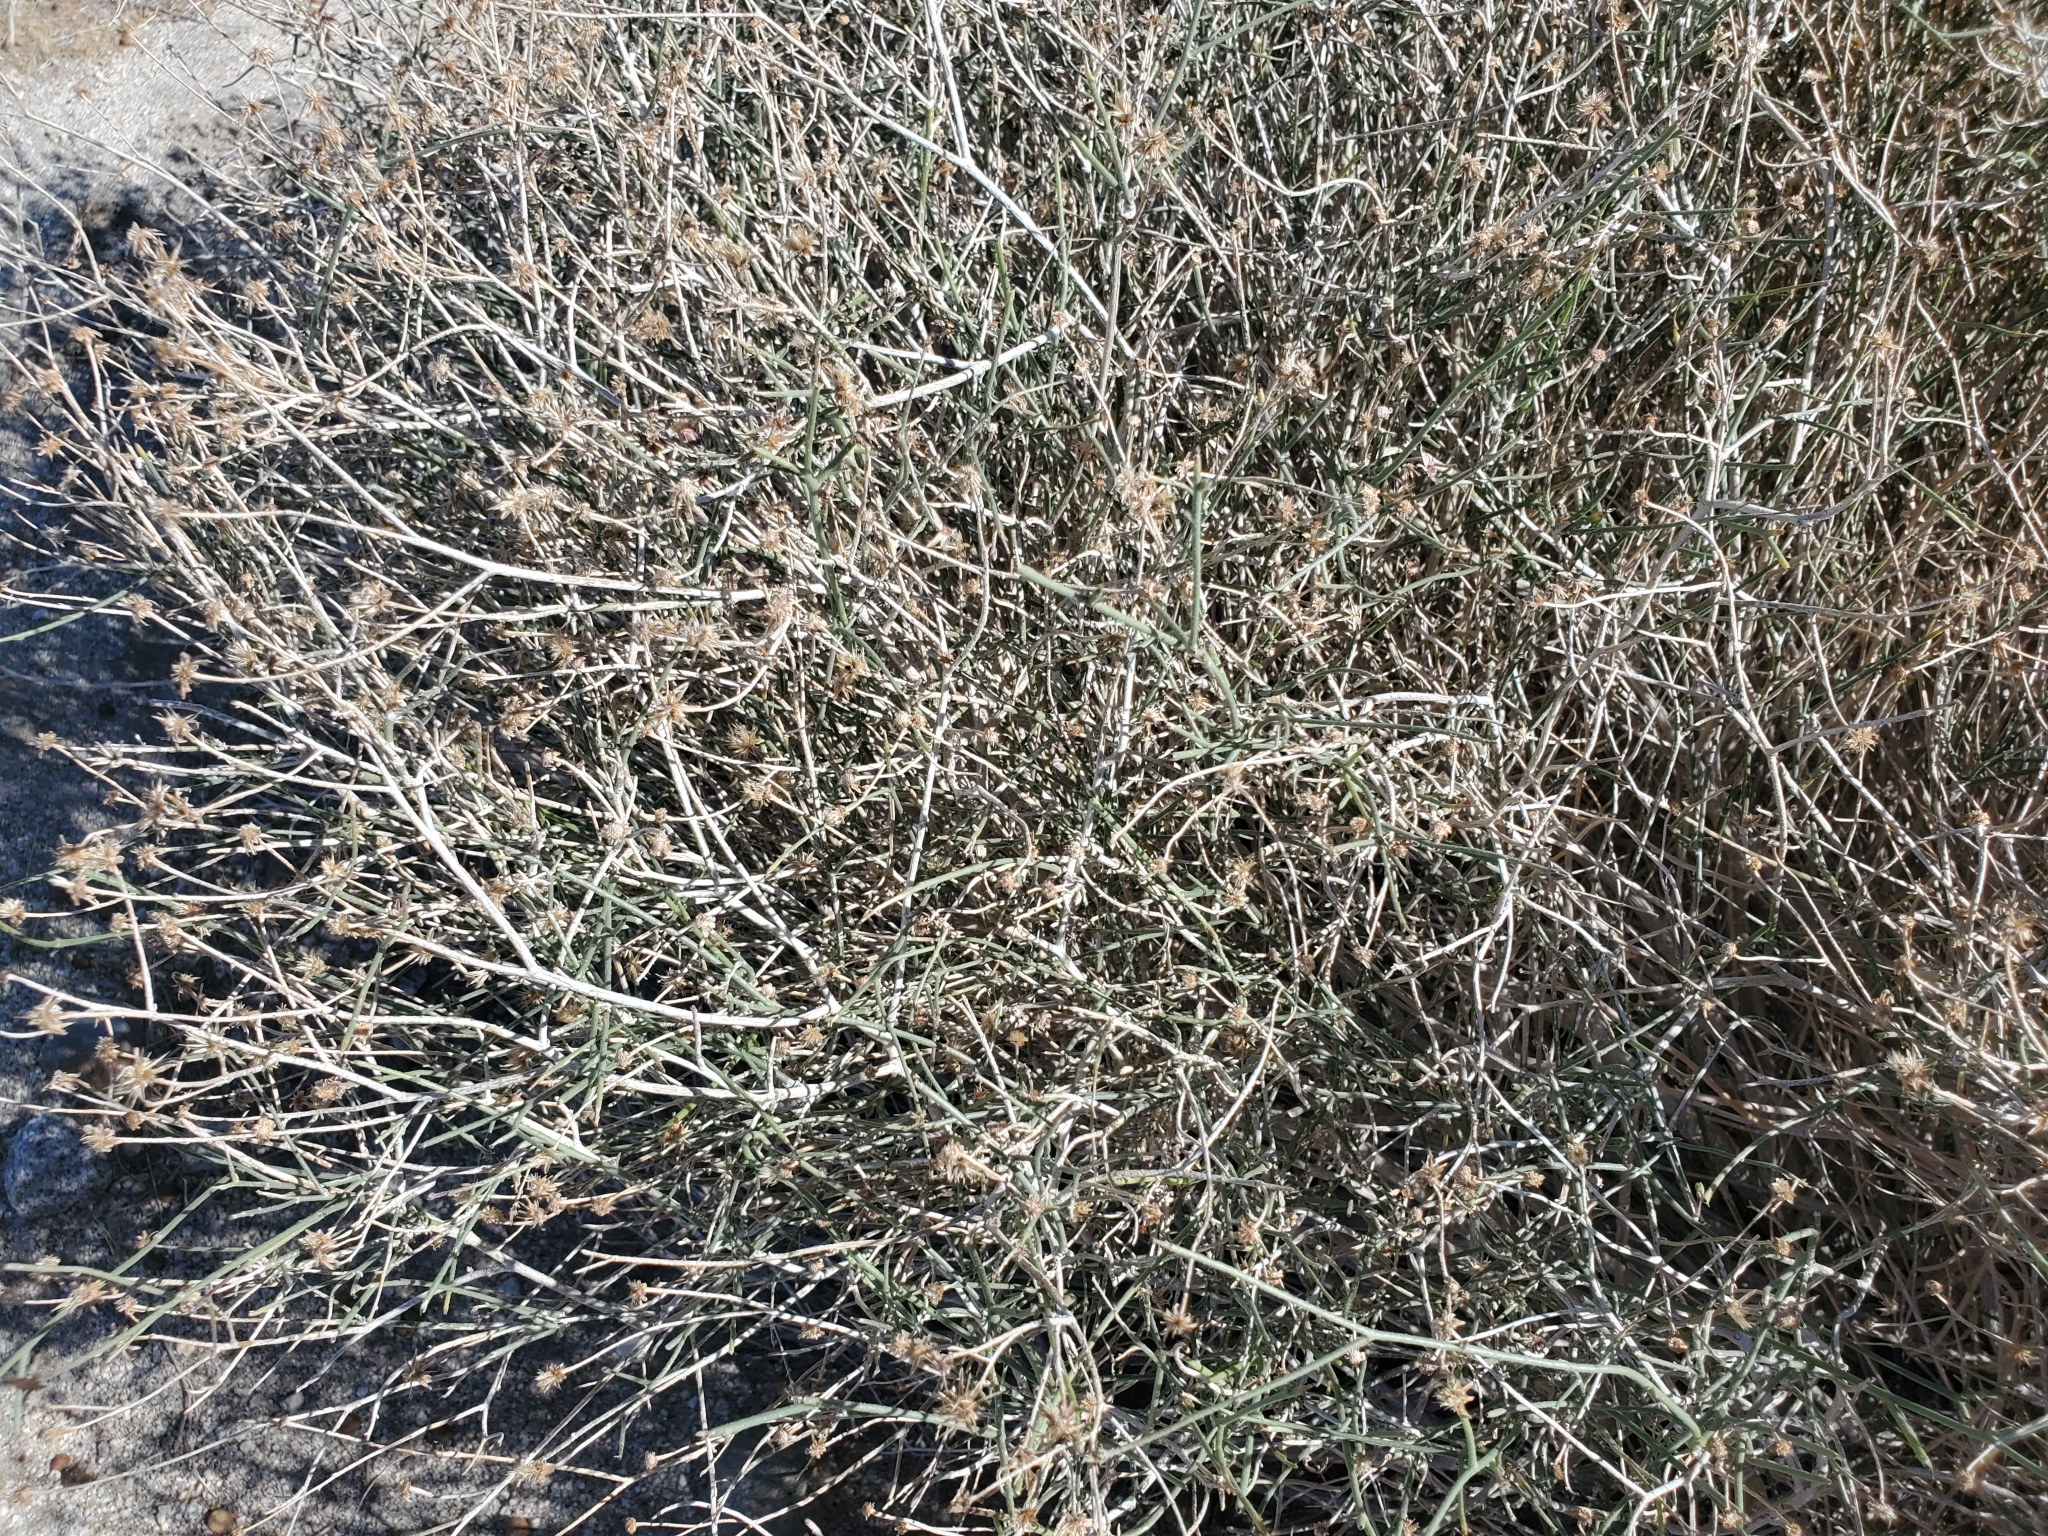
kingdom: Plantae
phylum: Tracheophyta
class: Magnoliopsida
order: Asterales
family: Asteraceae
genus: Stephanomeria
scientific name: Stephanomeria pauciflora
